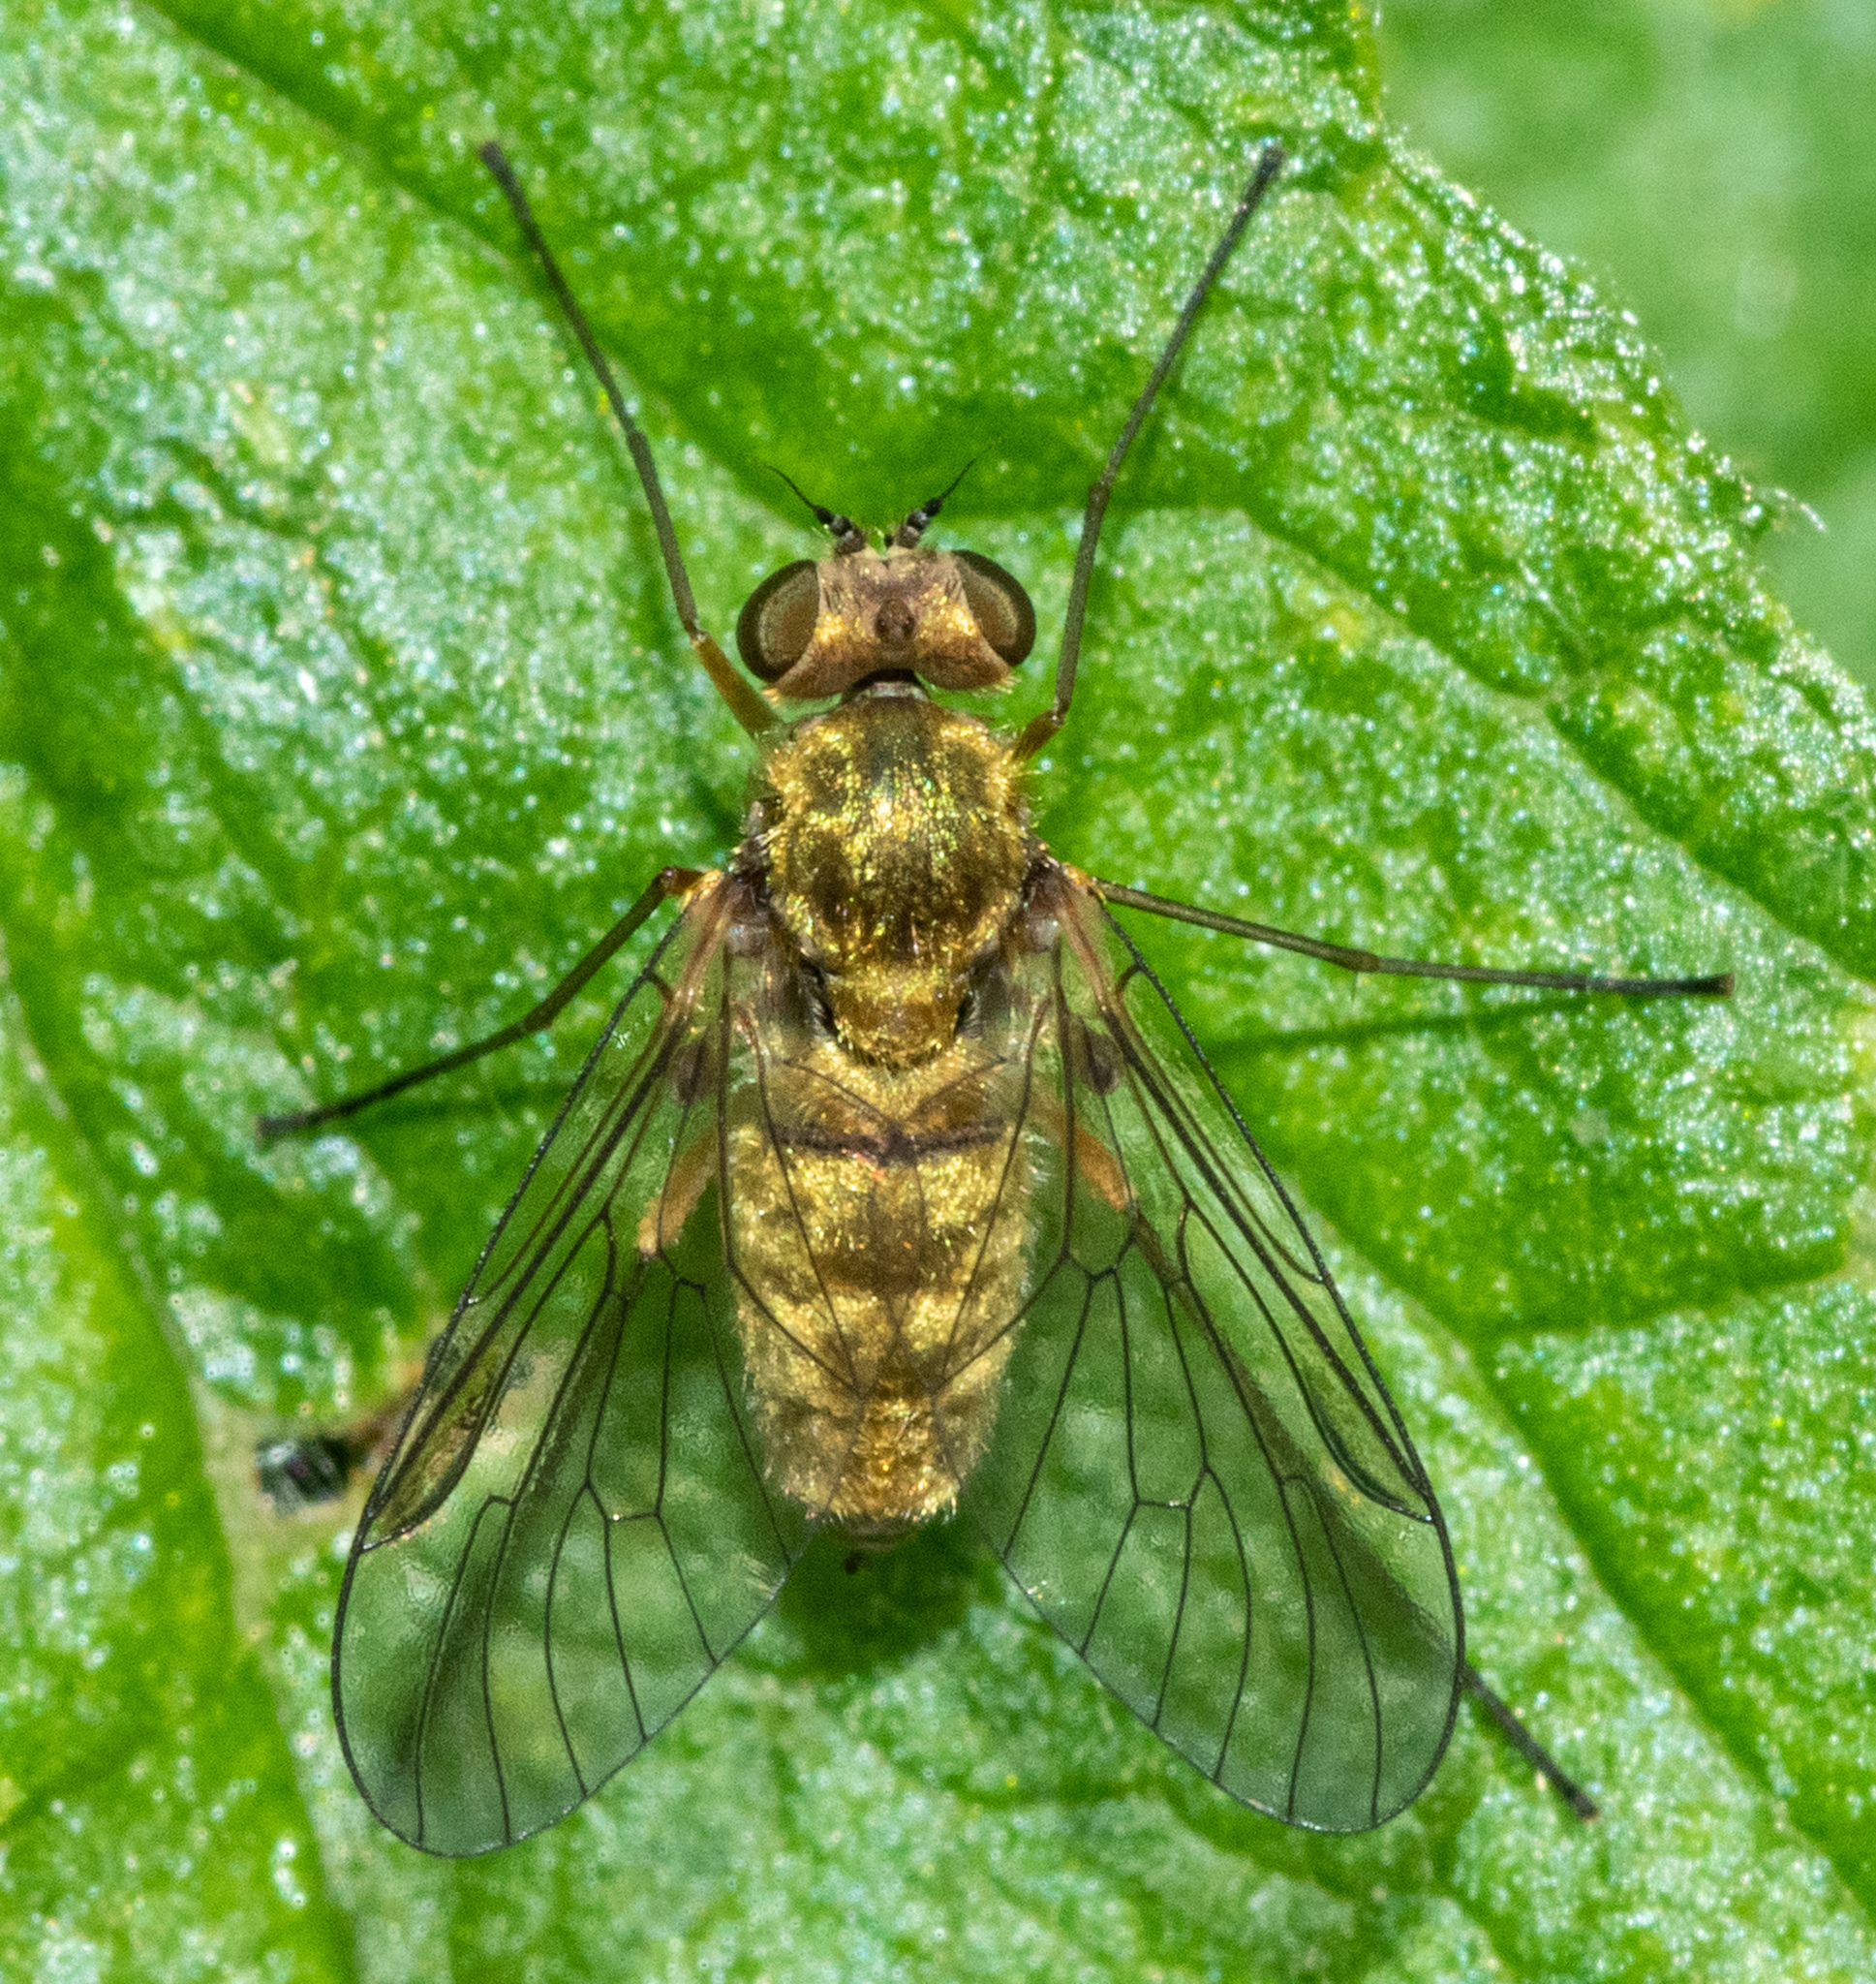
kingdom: Animalia
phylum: Arthropoda
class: Insecta
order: Diptera
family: Rhagionidae
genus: Chrysopilus
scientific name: Chrysopilus tomentosus
